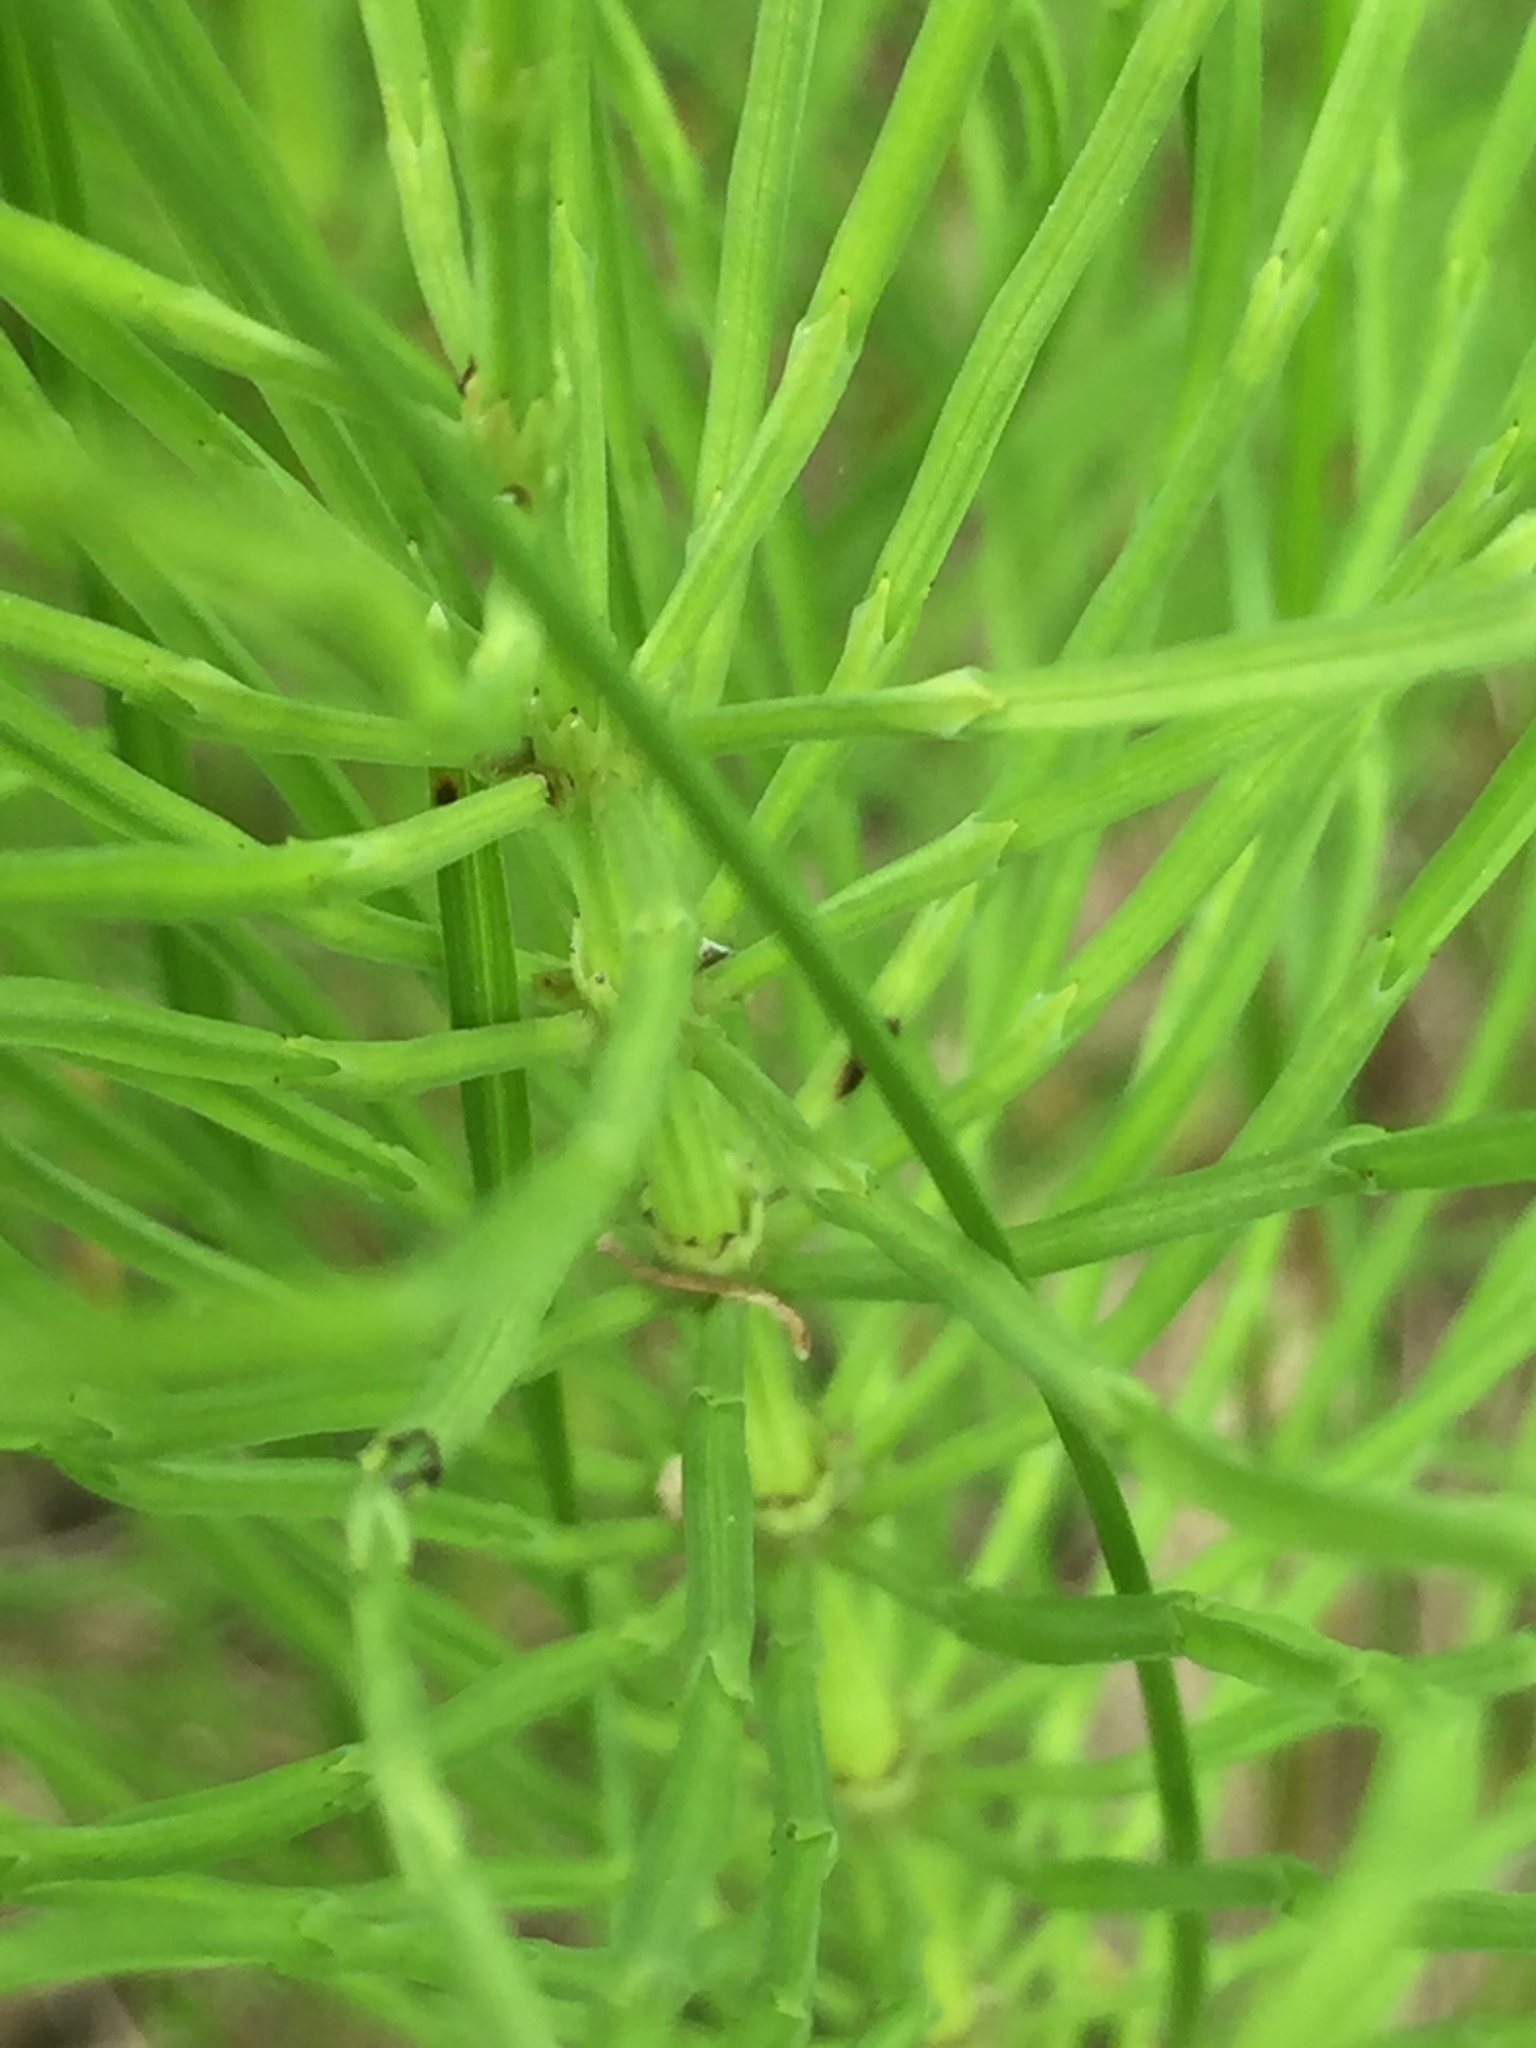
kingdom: Plantae
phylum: Tracheophyta
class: Polypodiopsida
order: Equisetales
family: Equisetaceae
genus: Equisetum
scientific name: Equisetum arvense
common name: Field horsetail
